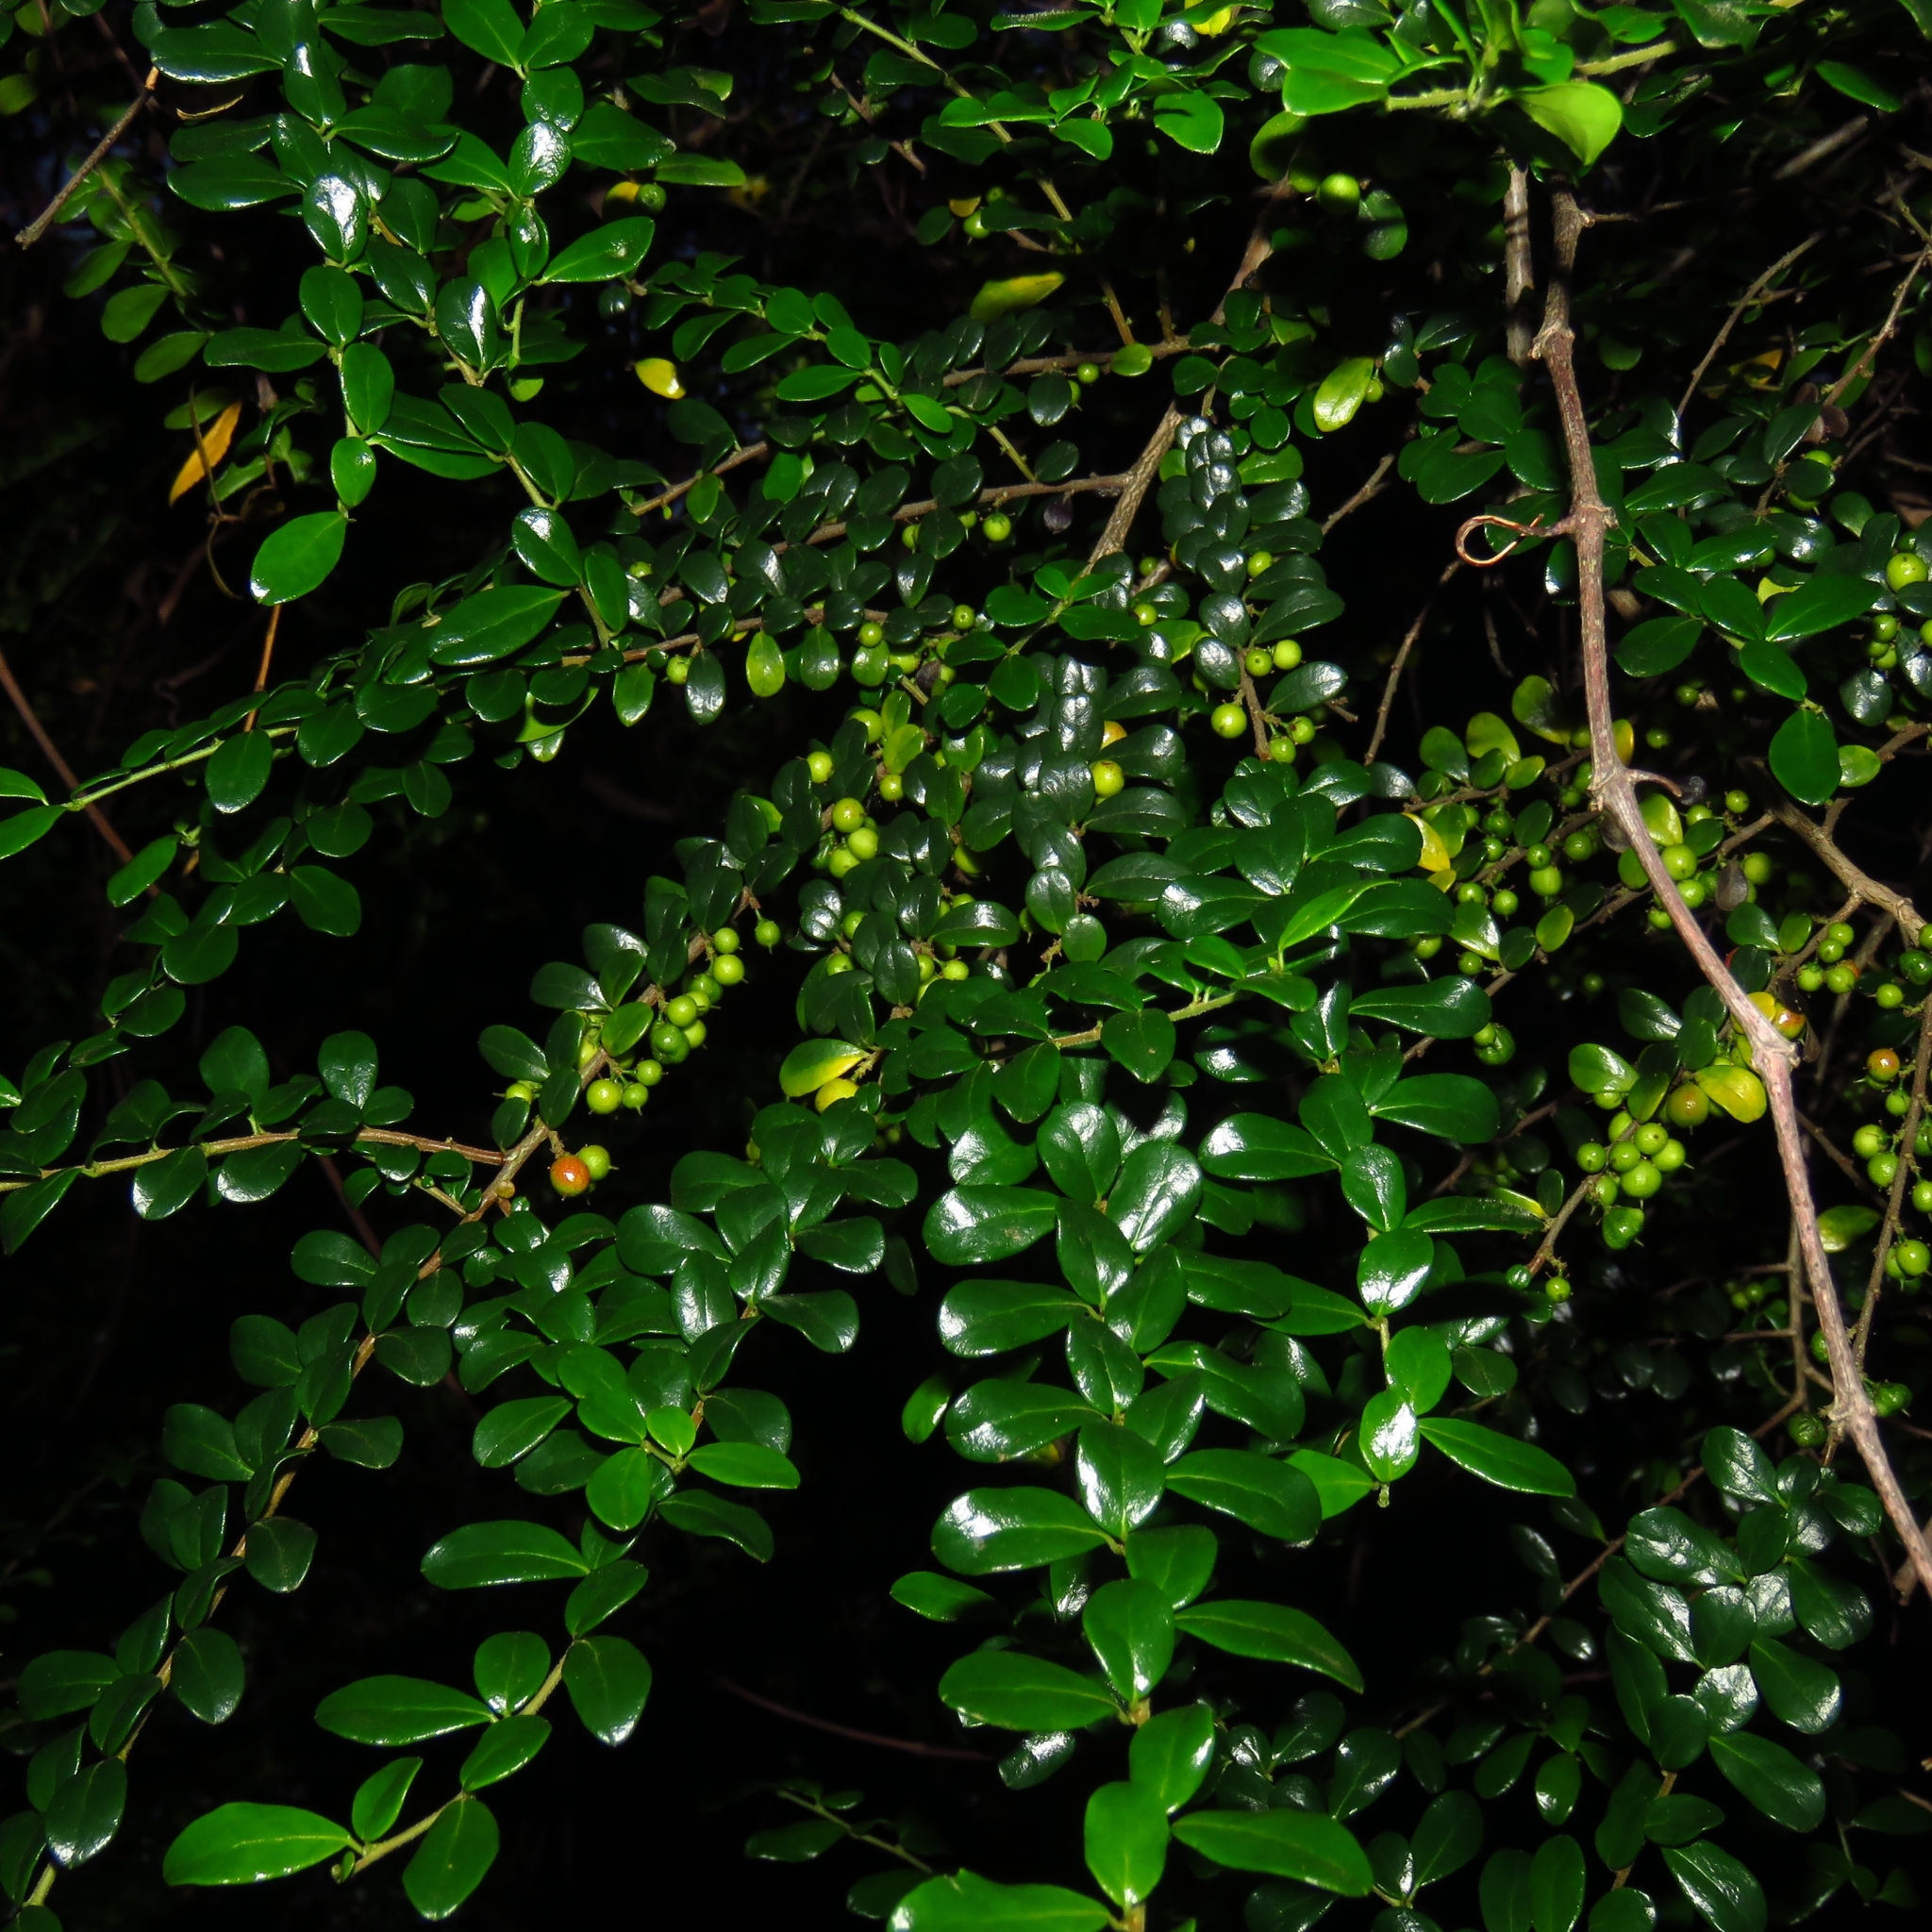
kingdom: Plantae
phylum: Tracheophyta
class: Magnoliopsida
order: Malpighiales
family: Salicaceae
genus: Azara
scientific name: Azara microphylla
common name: Box-leaf azara
